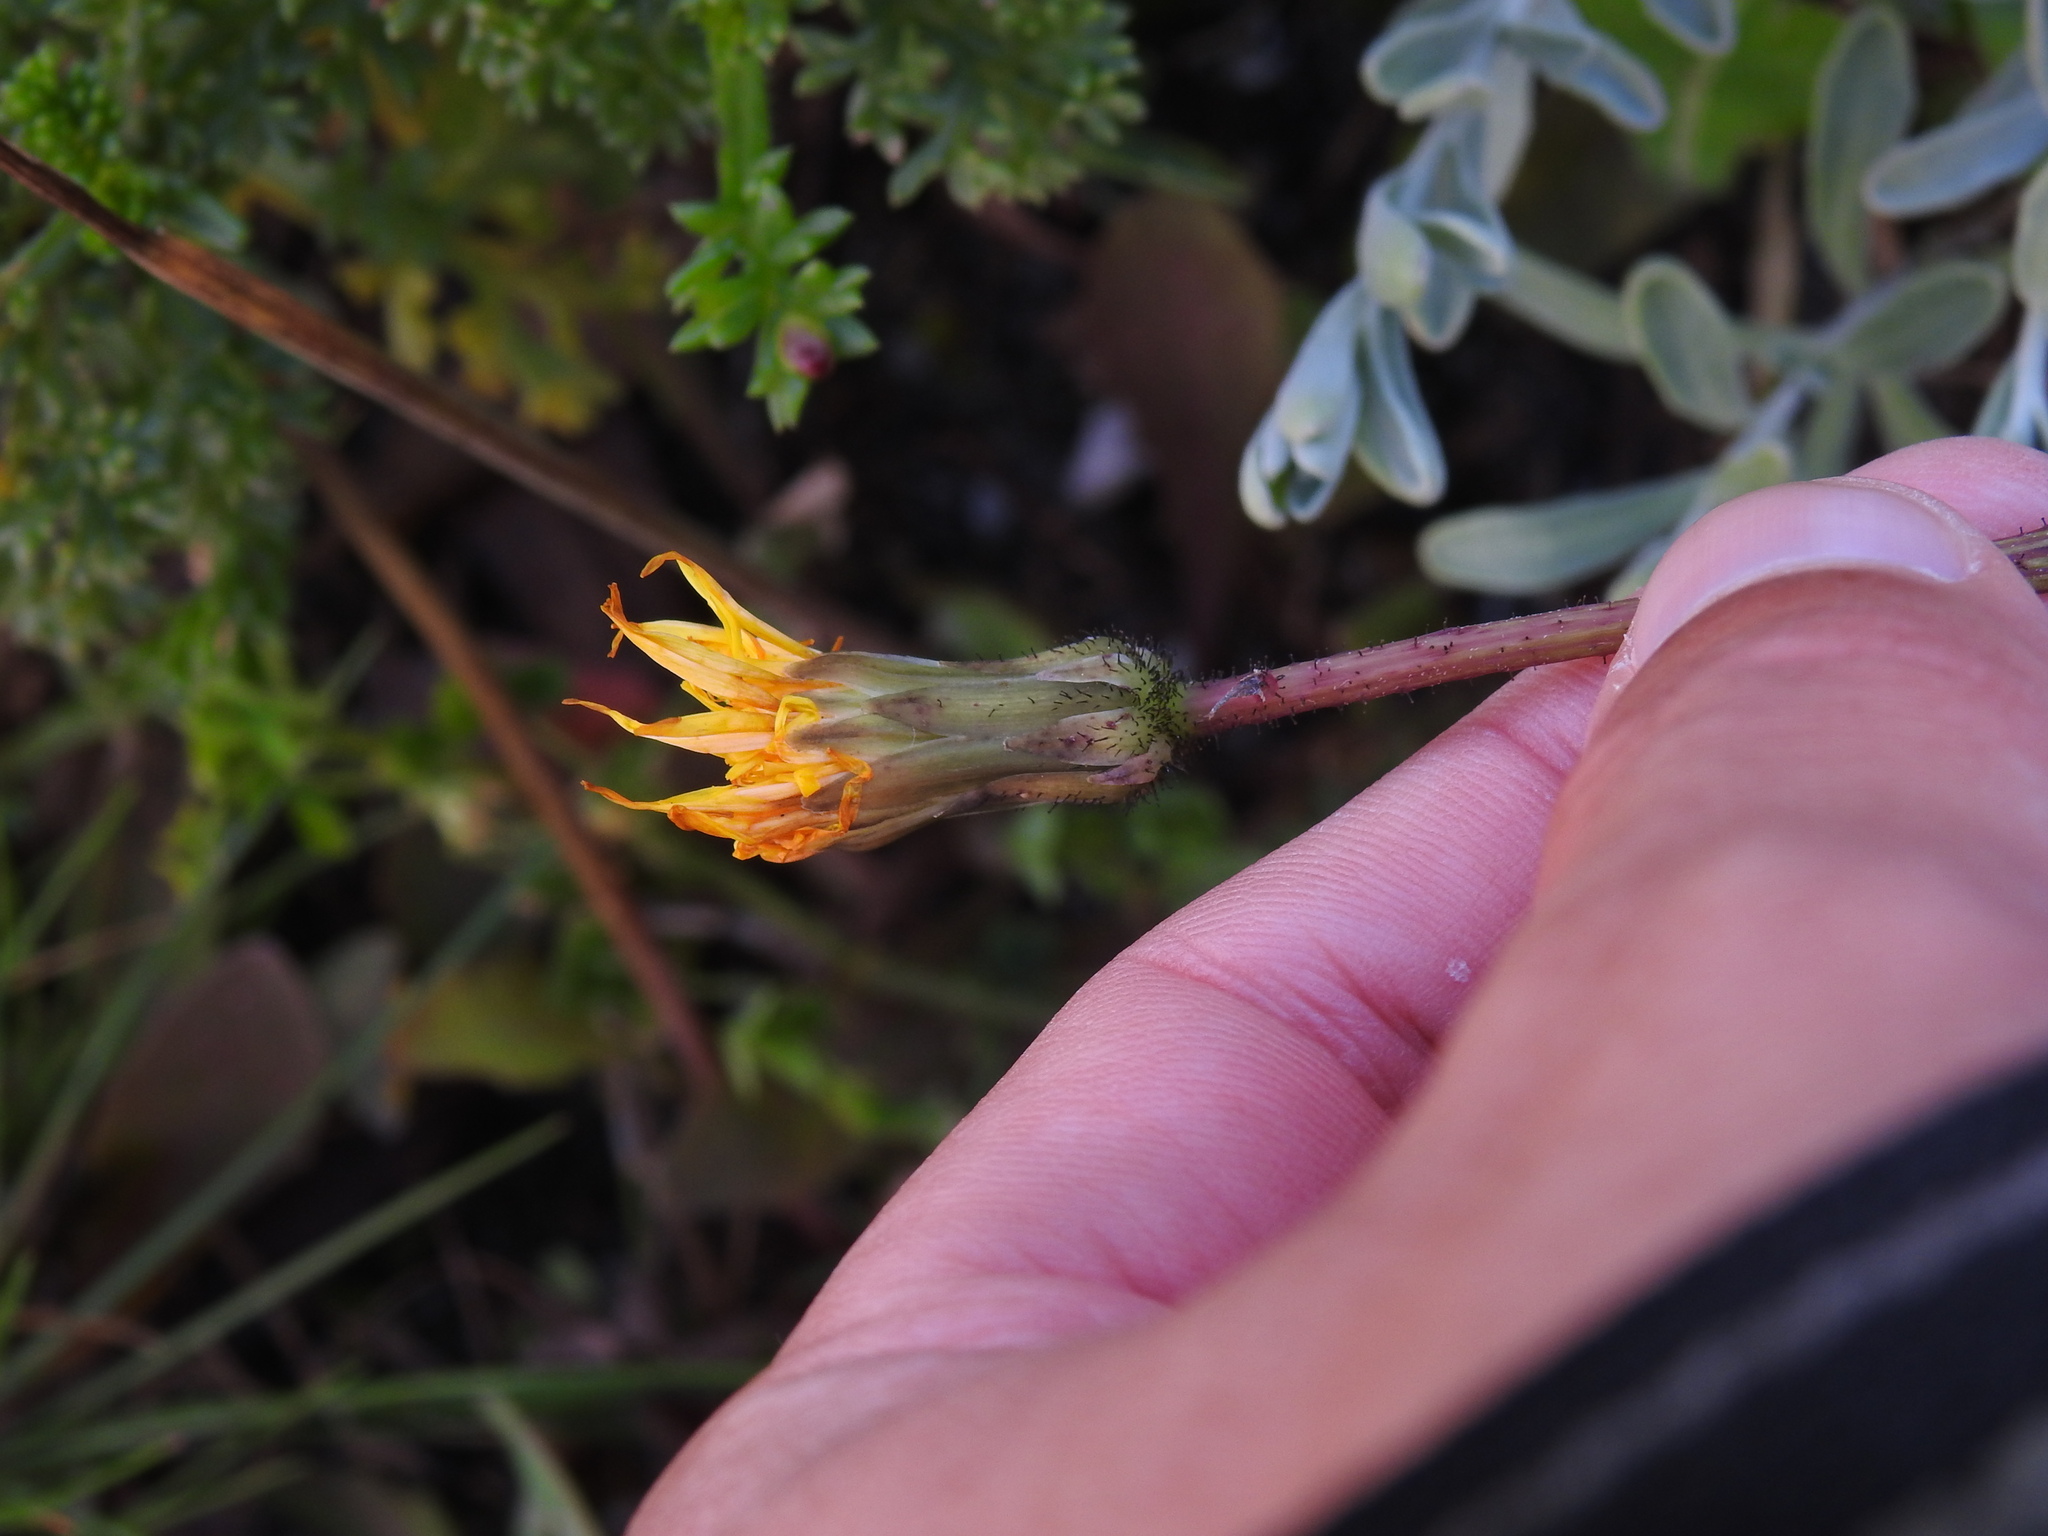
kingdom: Plantae
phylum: Tracheophyta
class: Magnoliopsida
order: Asterales
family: Asteraceae
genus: Aetheorhiza
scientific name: Aetheorhiza bulbosa
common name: Tuberous hawk's-beard
